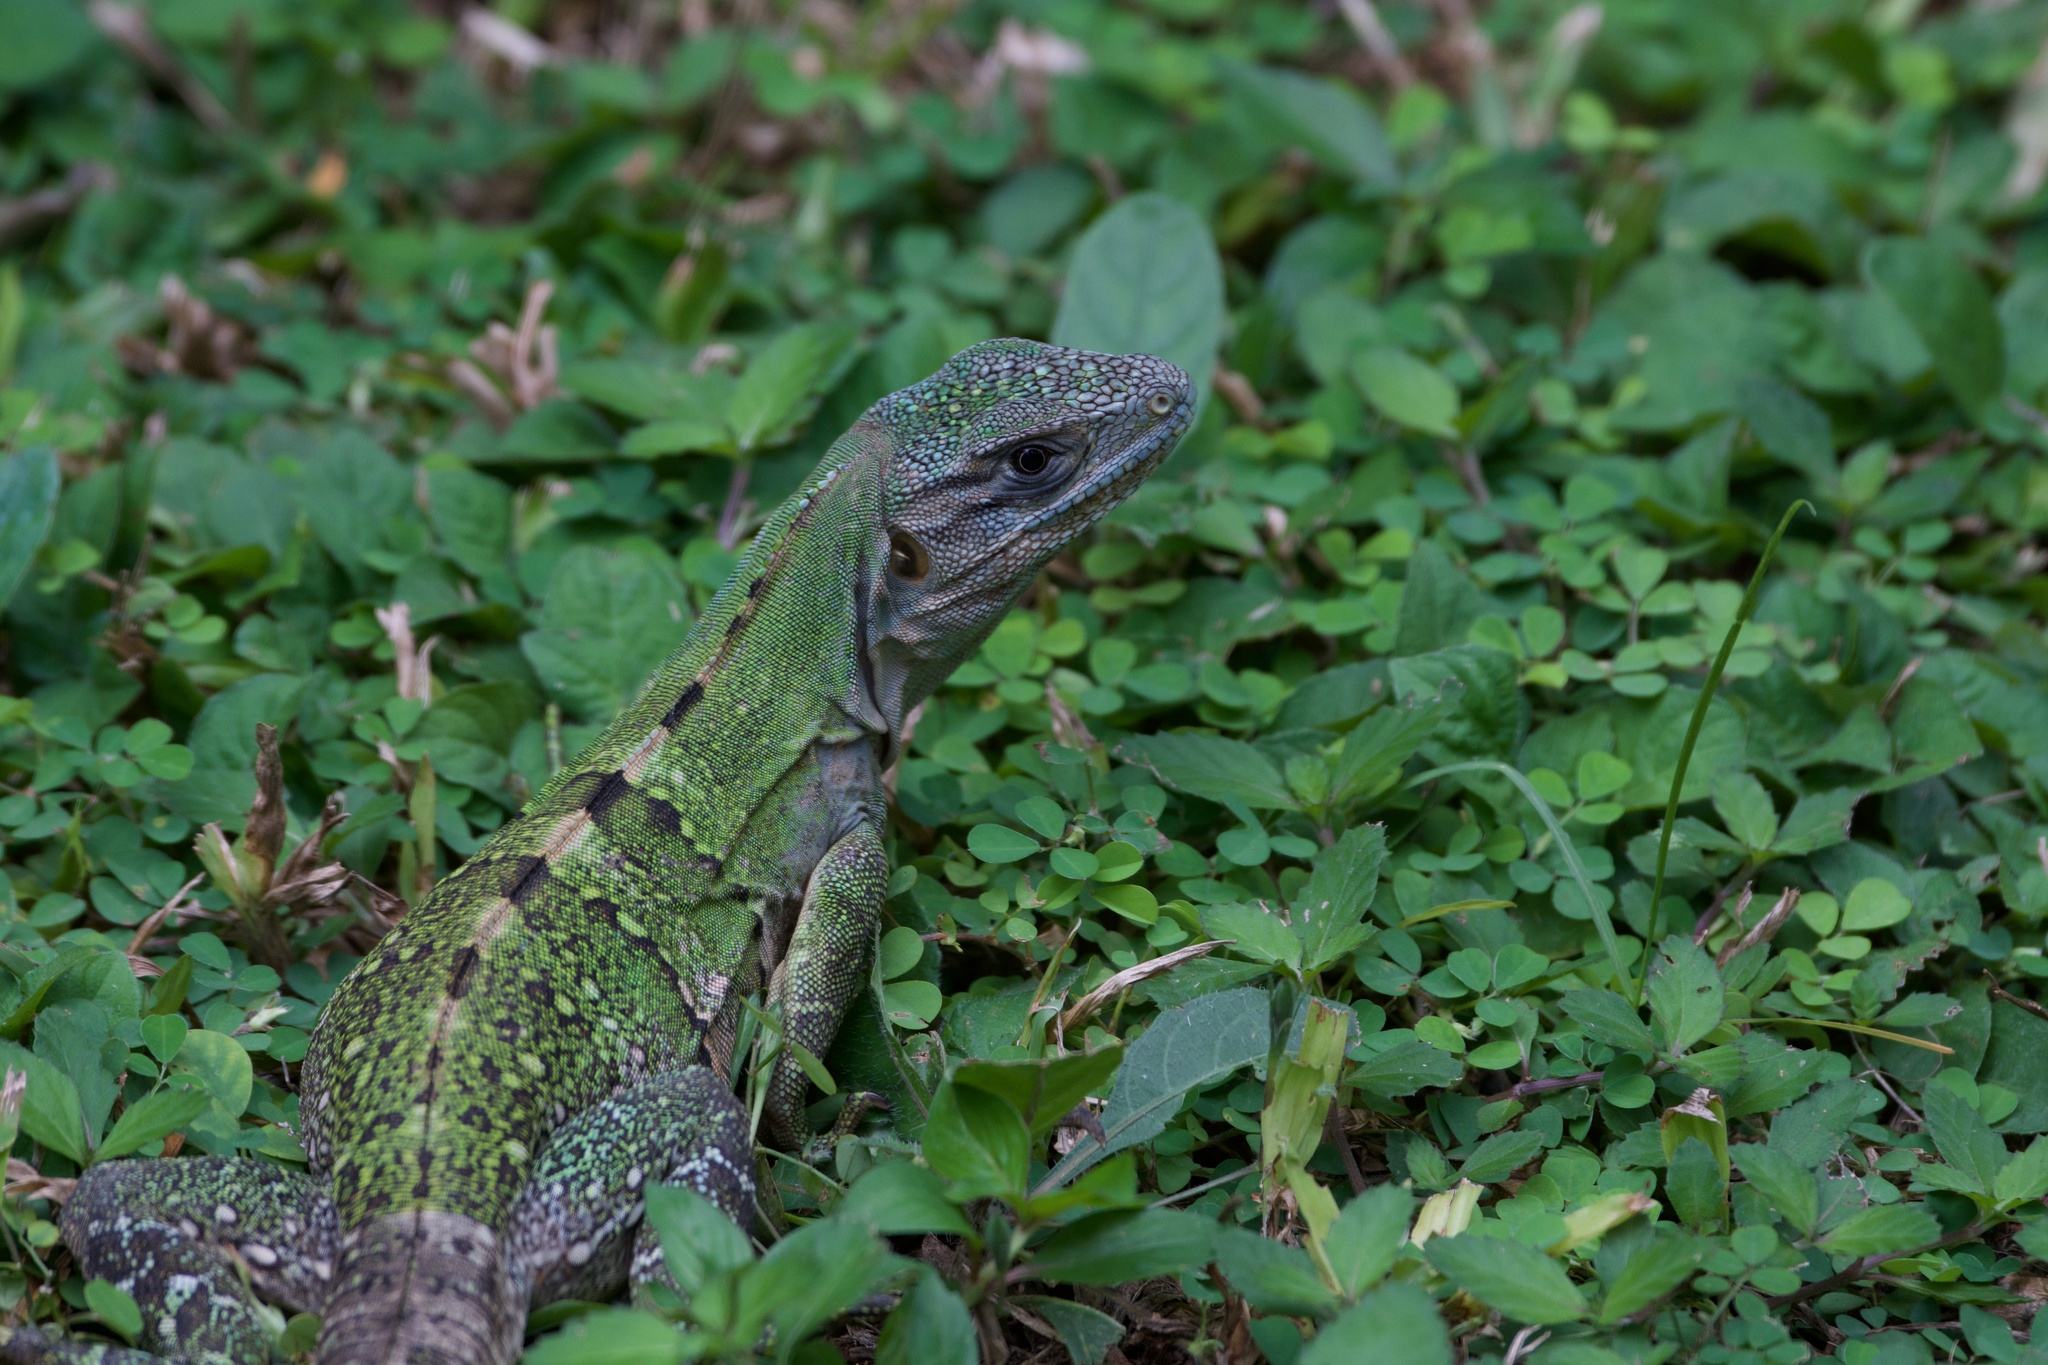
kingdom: Animalia
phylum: Chordata
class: Squamata
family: Iguanidae
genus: Ctenosaura
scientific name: Ctenosaura similis
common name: Black spiny-tailed iguana
